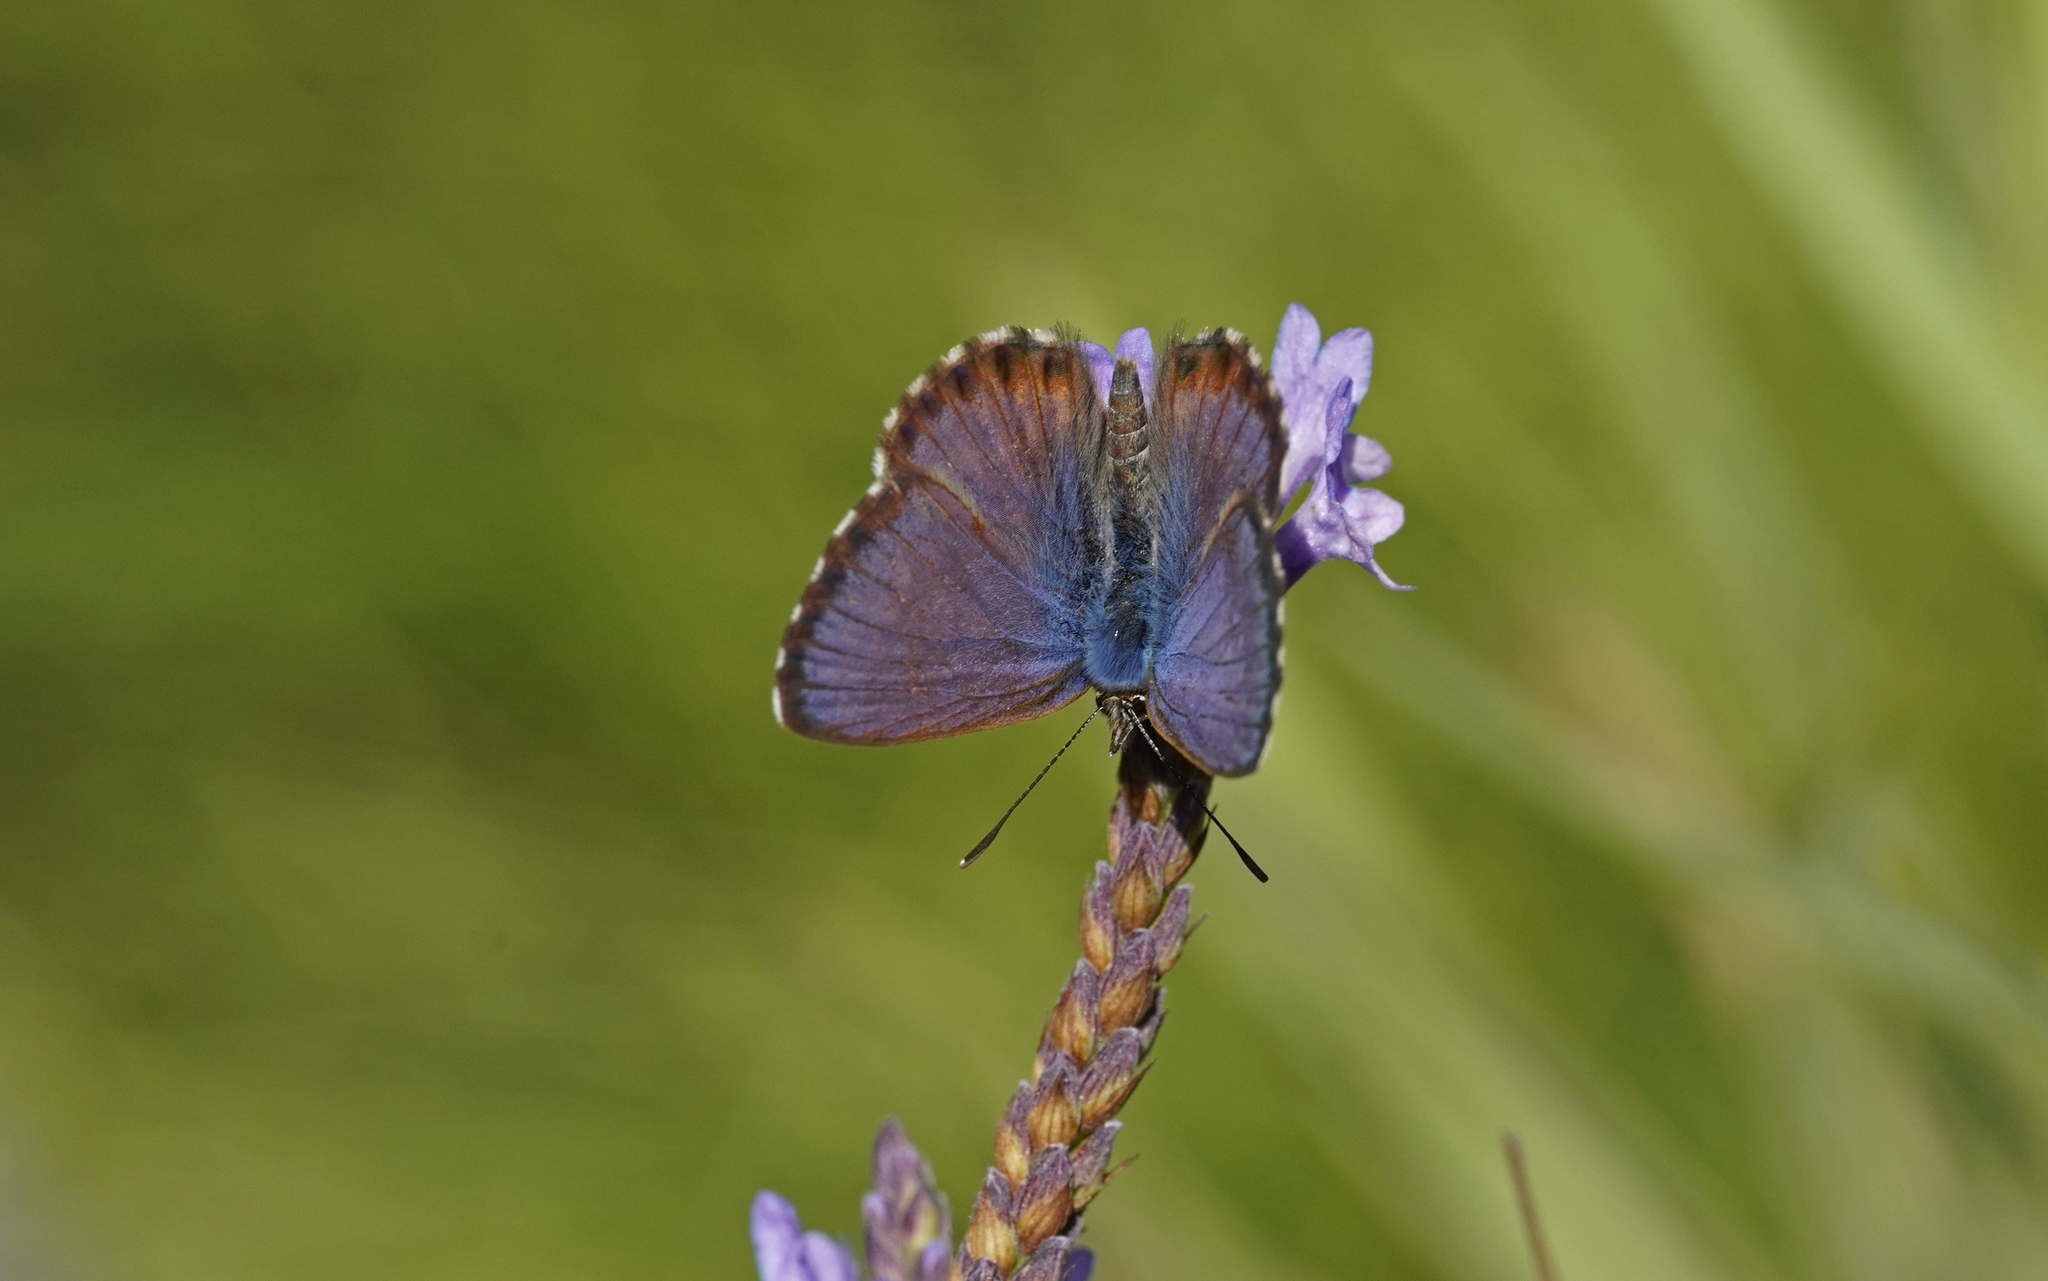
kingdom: Animalia
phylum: Arthropoda
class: Insecta
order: Lepidoptera
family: Lycaenidae
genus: Cyclyrius
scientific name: Cyclyrius webbianus
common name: Canary blue
